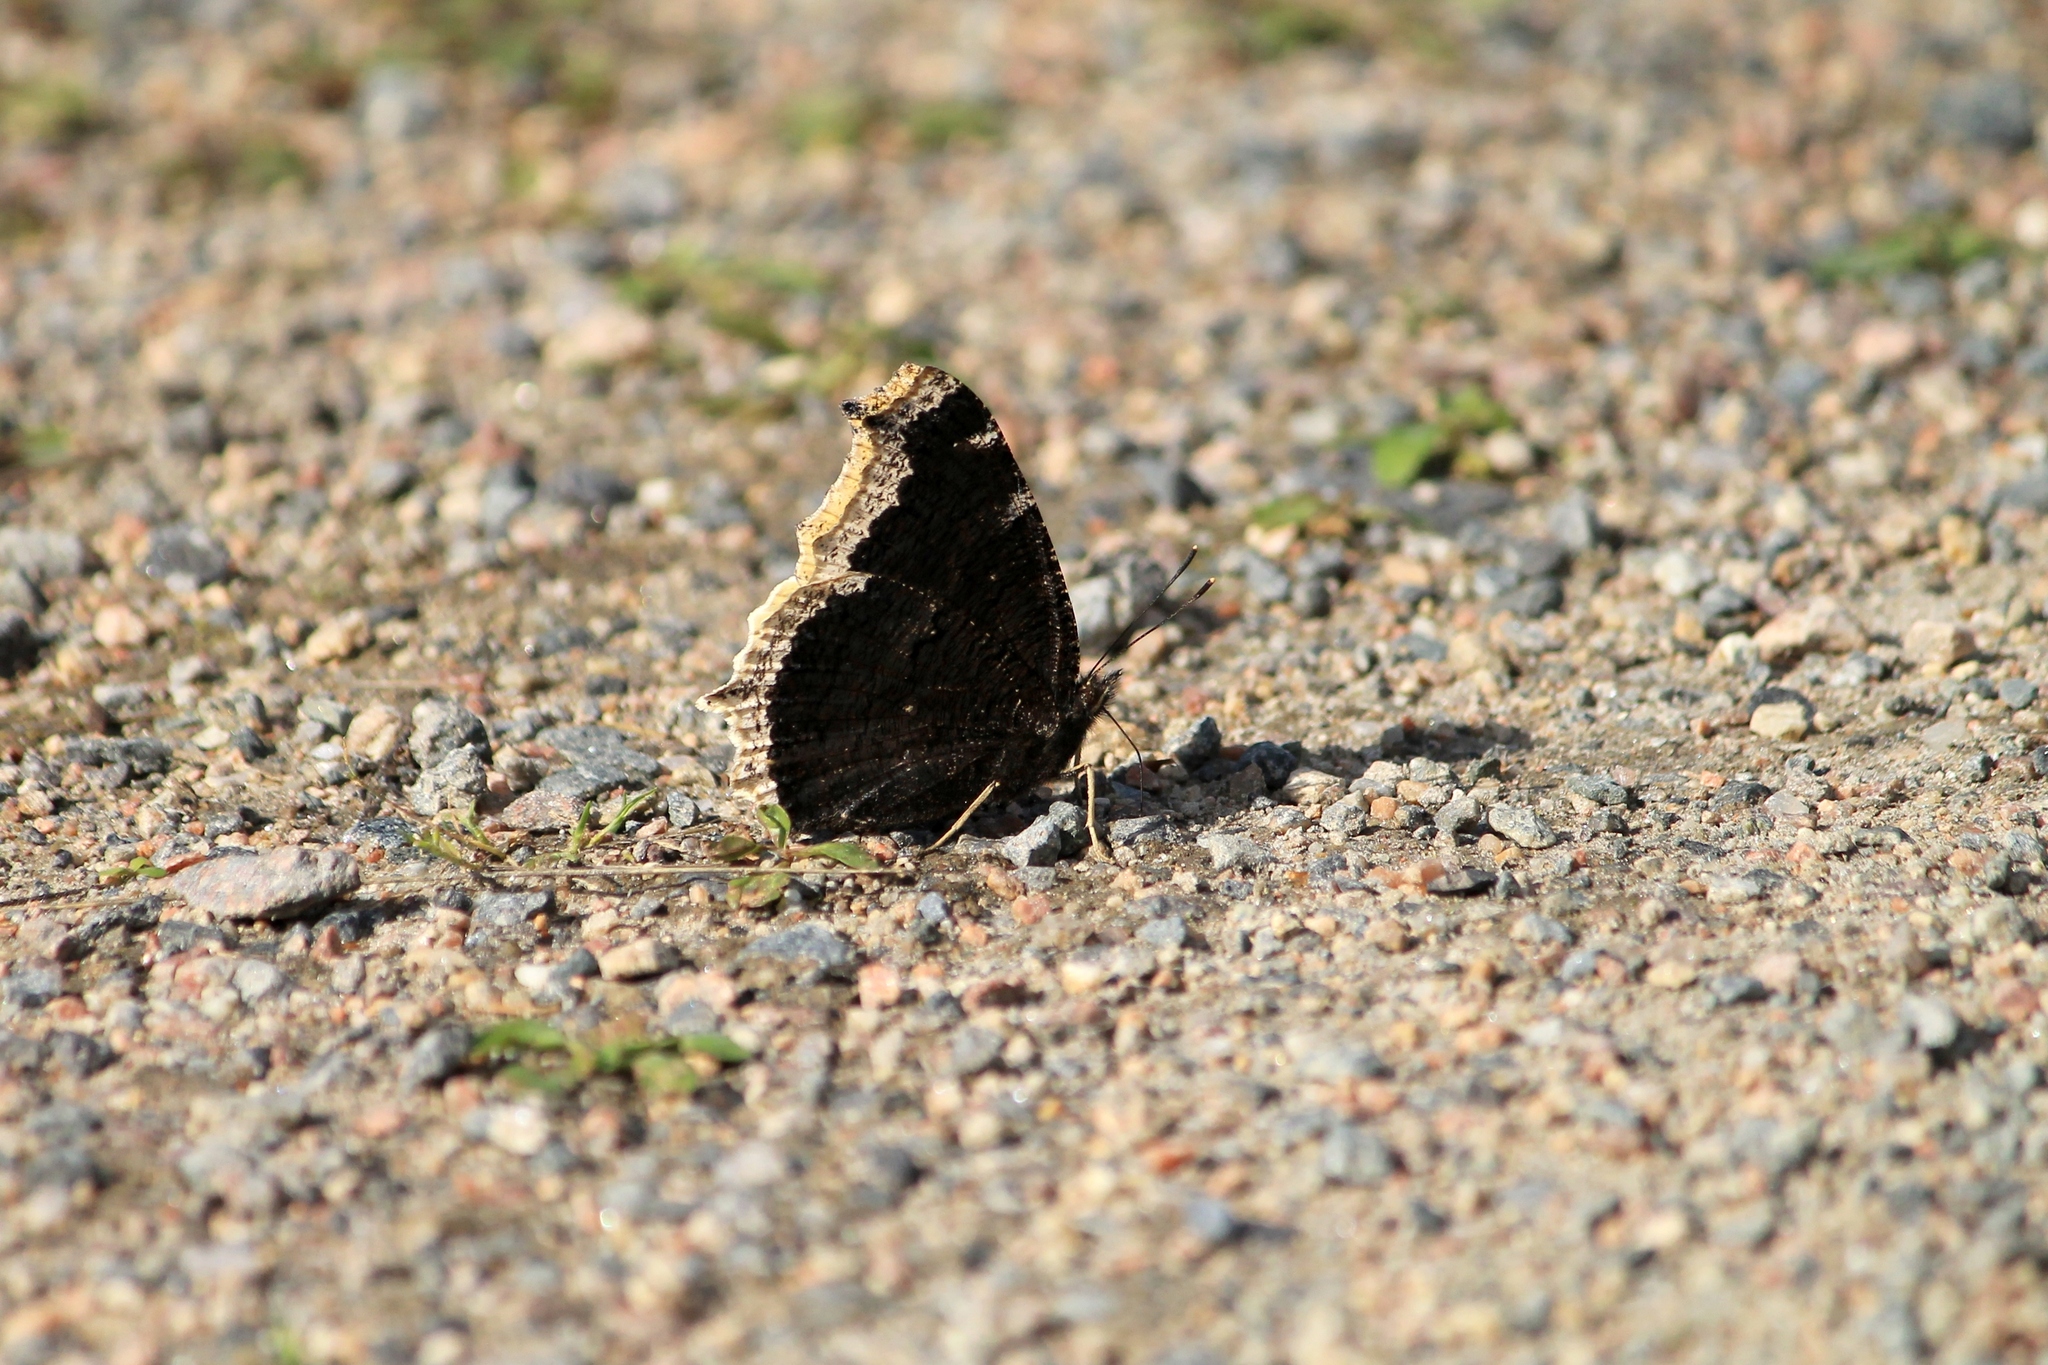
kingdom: Animalia
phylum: Arthropoda
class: Insecta
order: Lepidoptera
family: Nymphalidae
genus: Nymphalis
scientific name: Nymphalis antiopa
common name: Camberwell beauty
